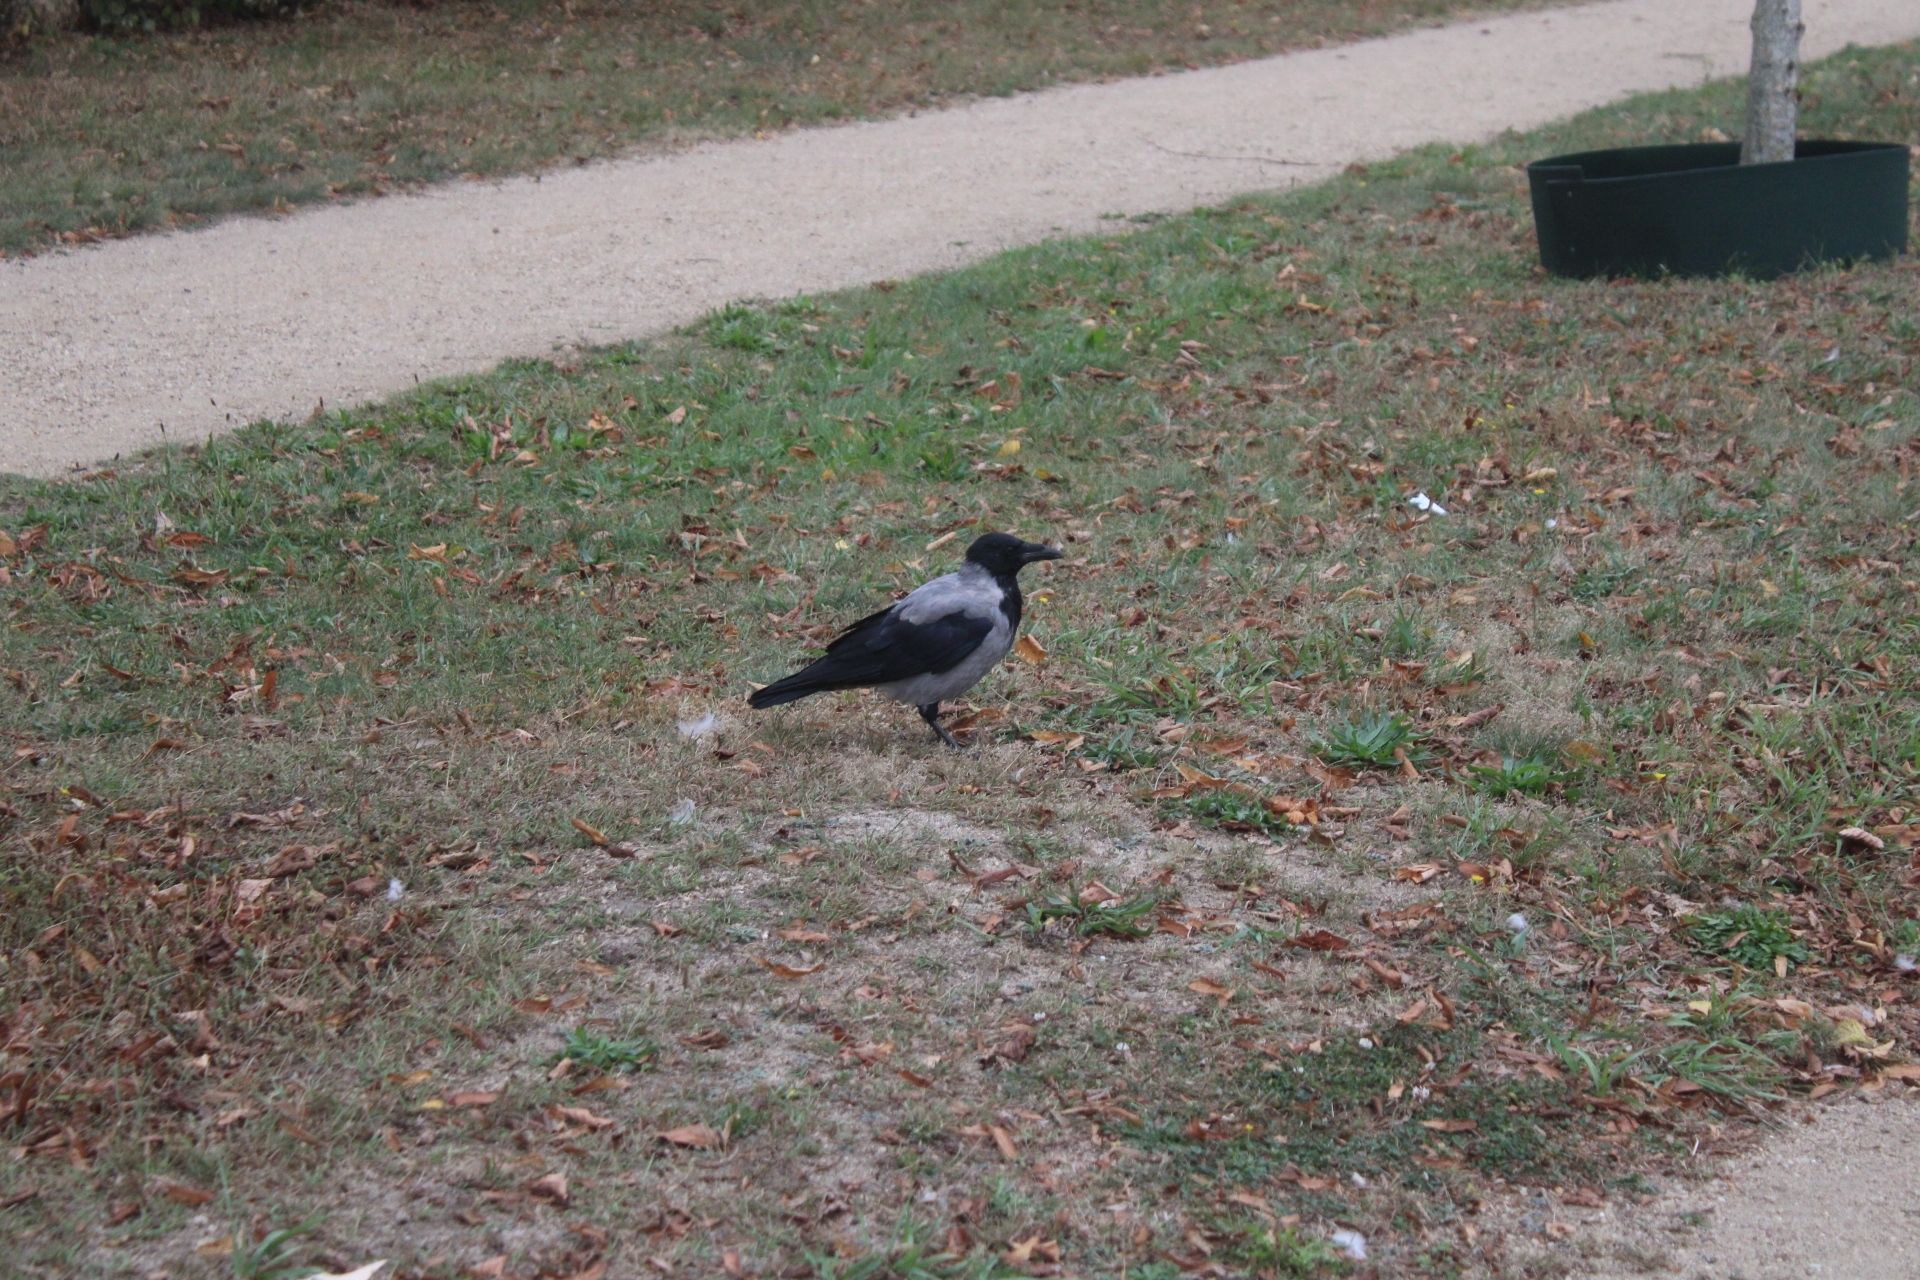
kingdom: Animalia
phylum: Chordata
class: Aves
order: Passeriformes
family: Corvidae
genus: Corvus
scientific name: Corvus cornix
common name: Hooded crow
